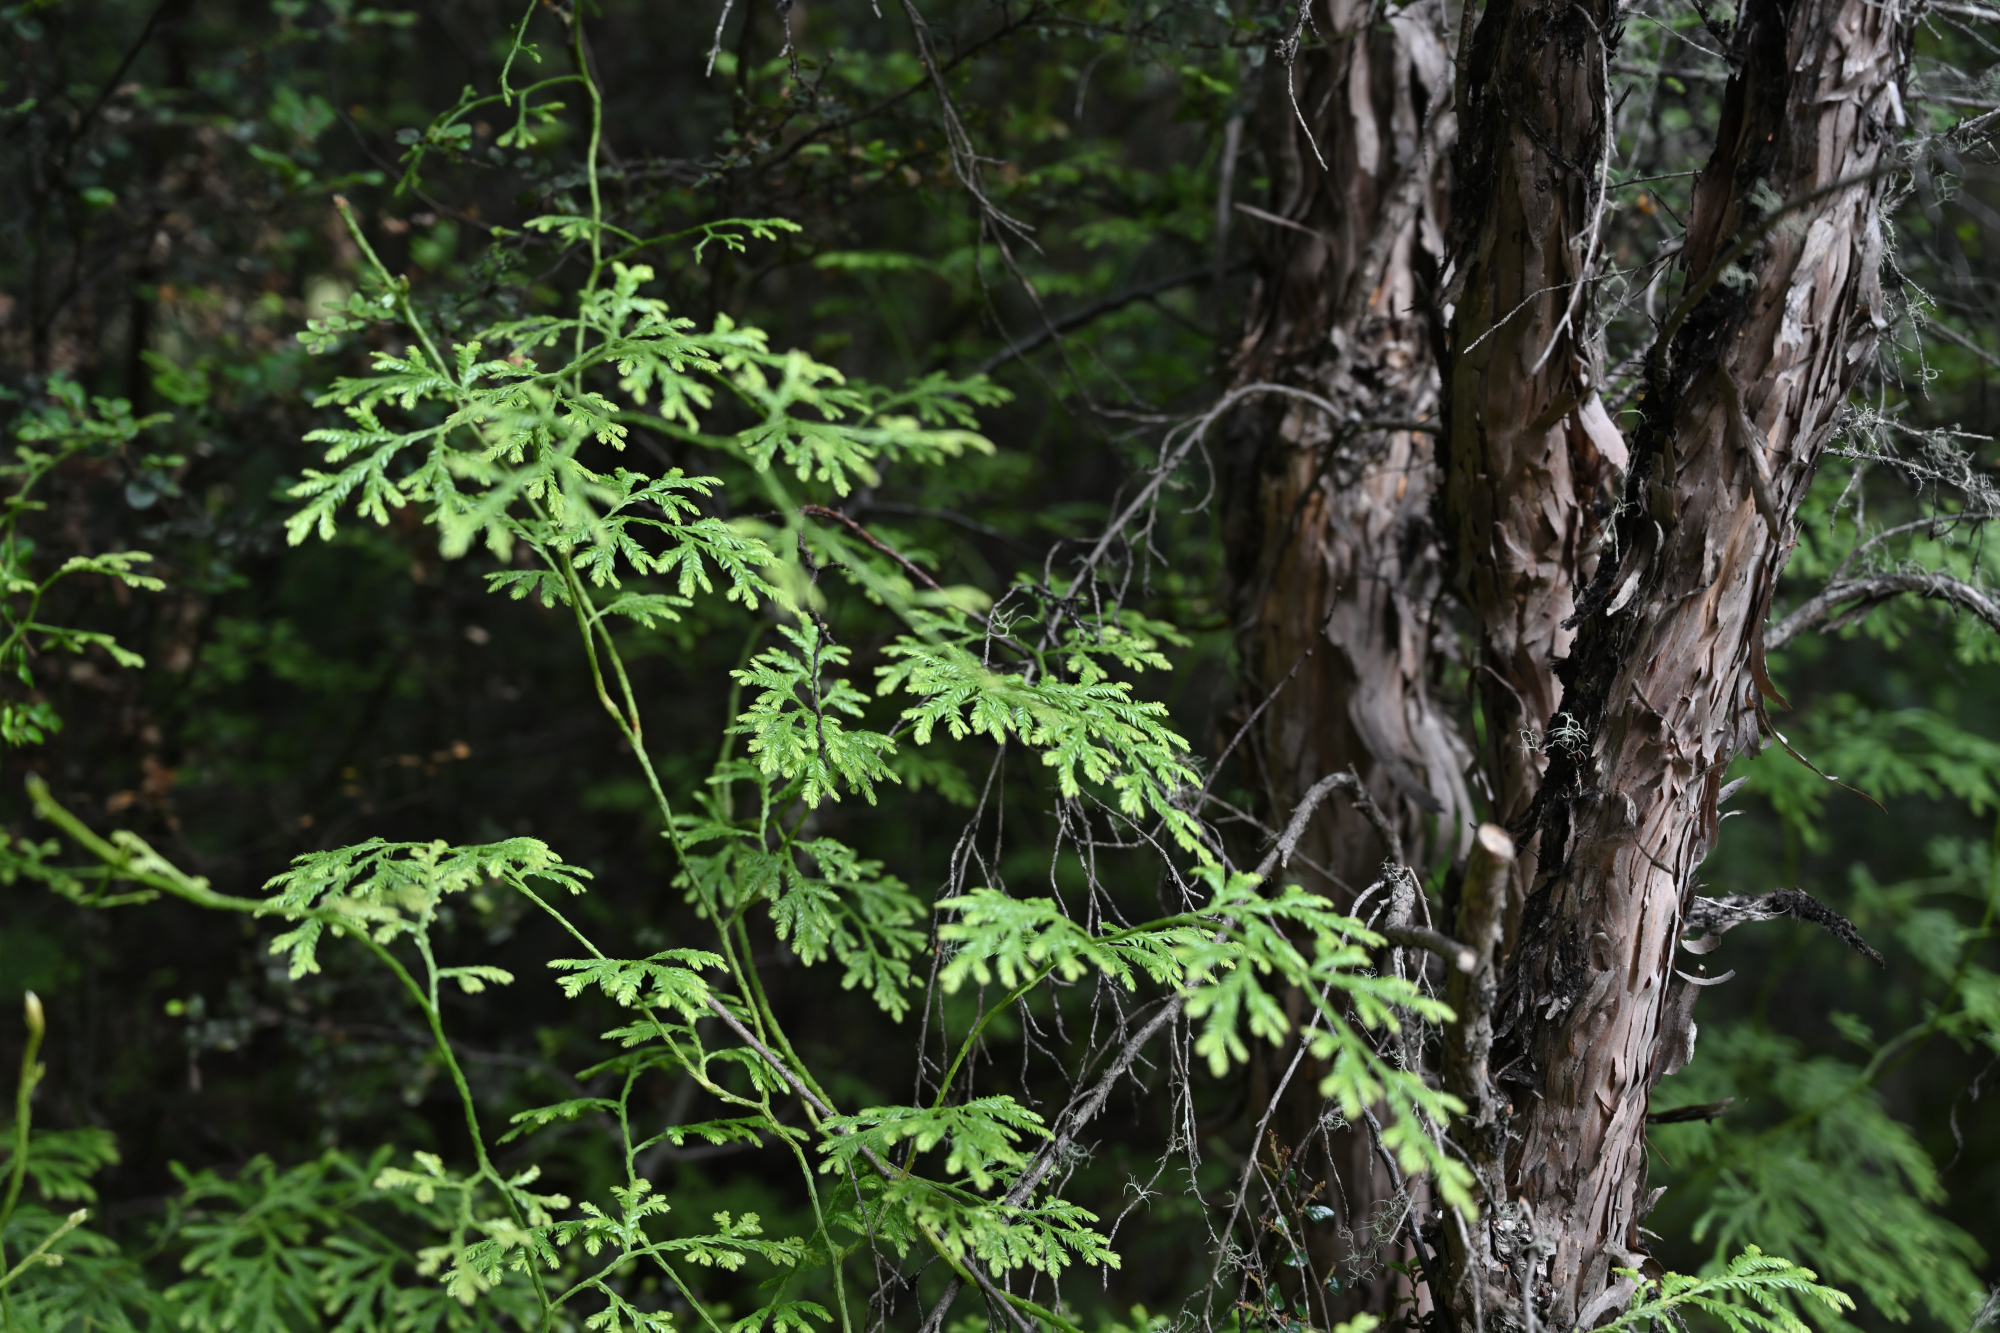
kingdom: Plantae
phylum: Tracheophyta
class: Lycopodiopsida
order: Lycopodiales
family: Lycopodiaceae
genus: Lycopodium
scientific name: Lycopodium volubile
